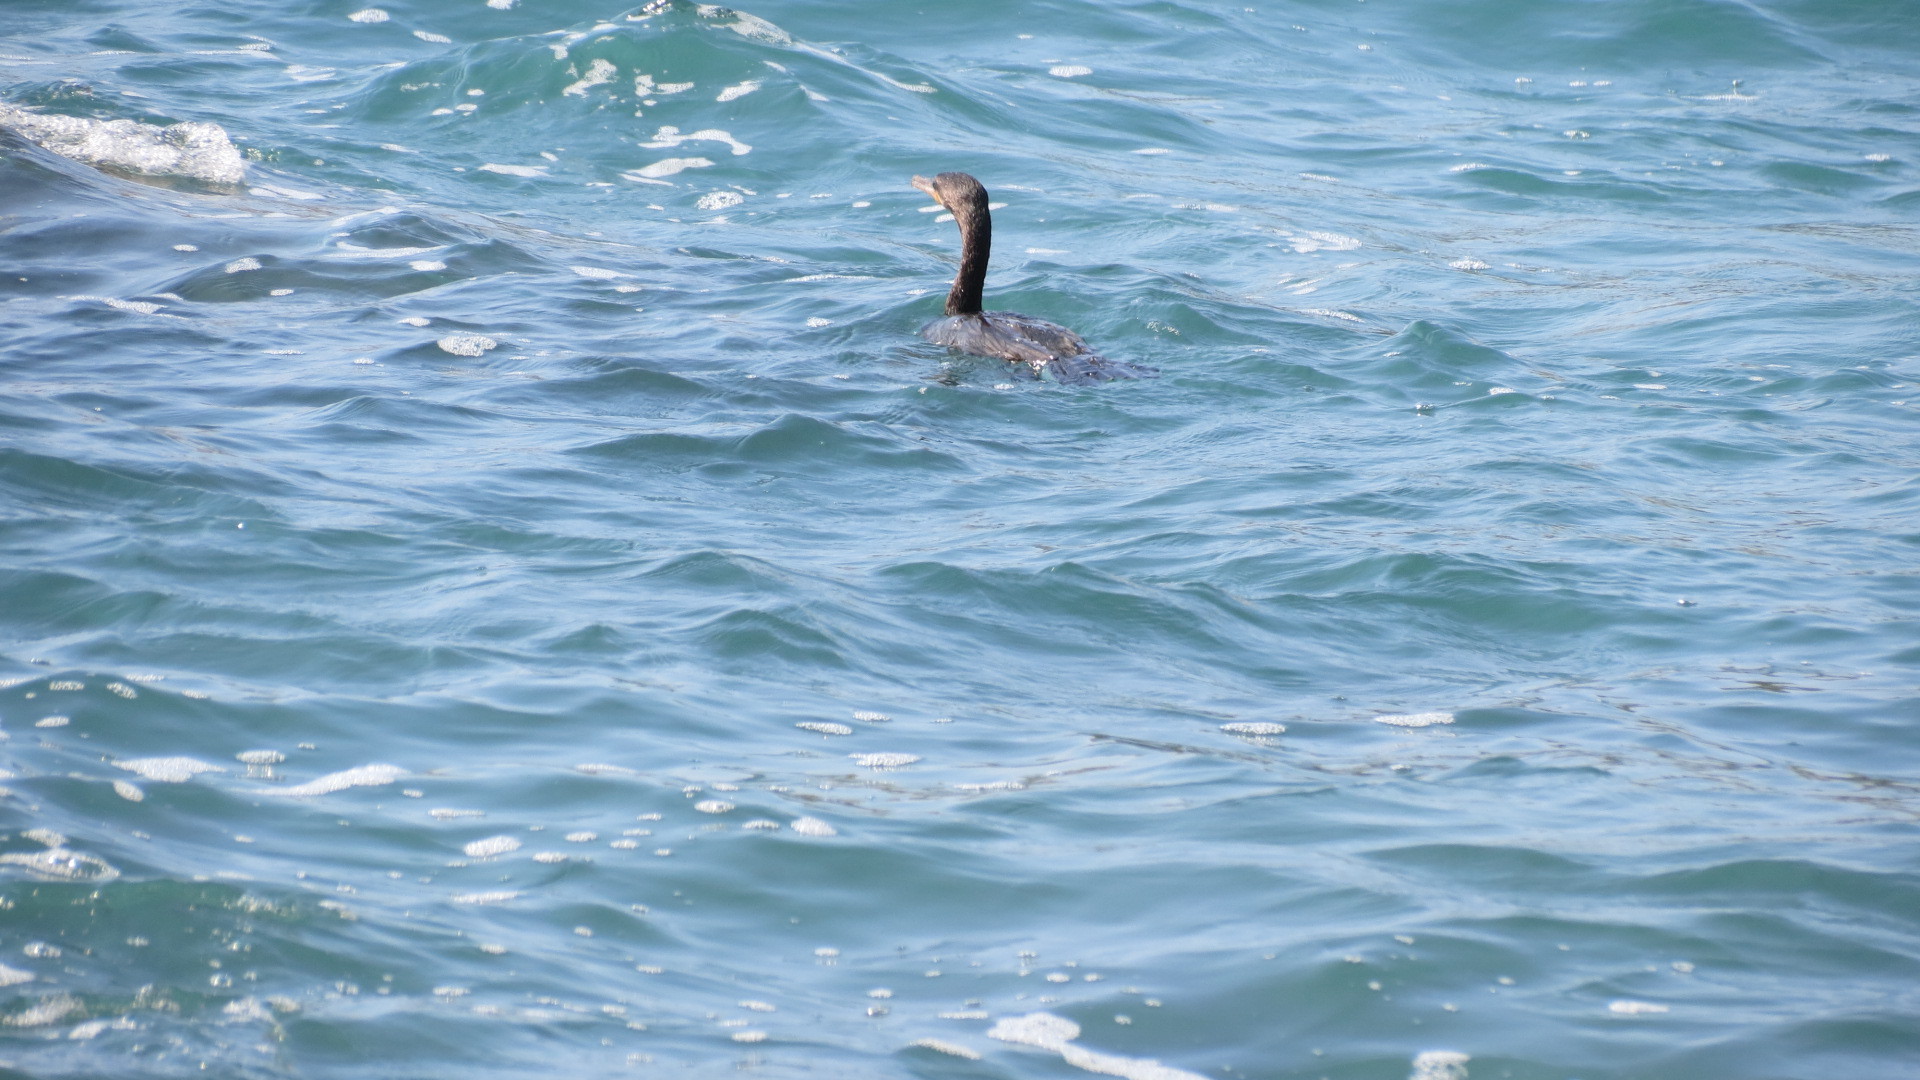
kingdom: Animalia
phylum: Chordata
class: Aves
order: Suliformes
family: Phalacrocoracidae
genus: Phalacrocorax
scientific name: Phalacrocorax brasilianus
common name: Neotropic cormorant
